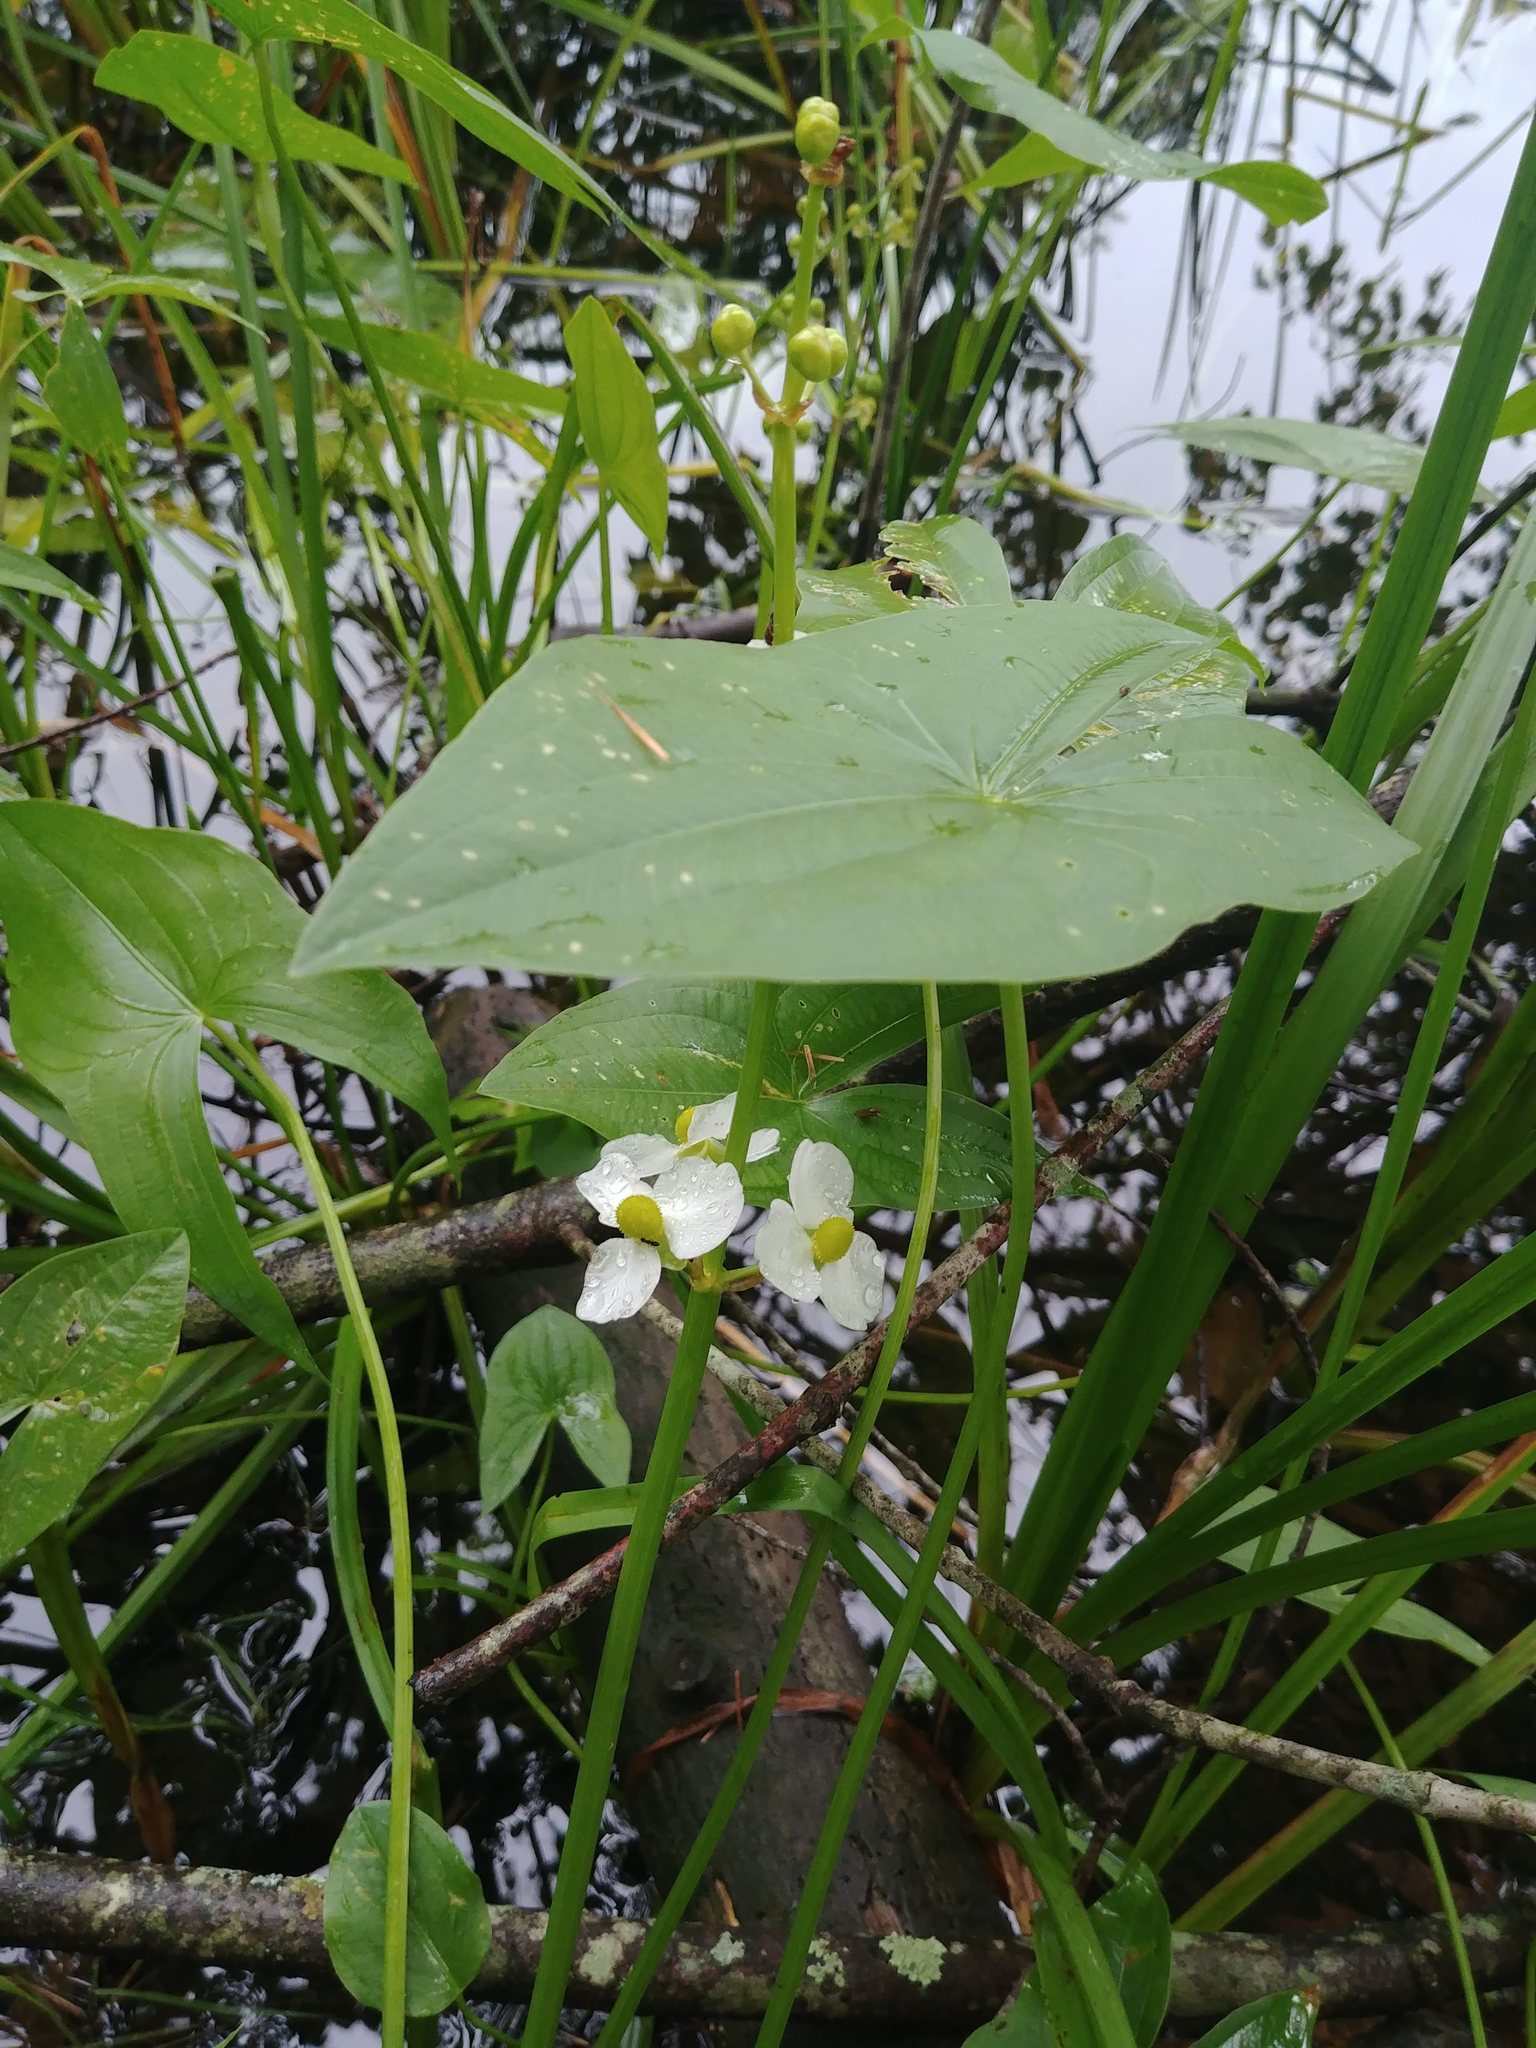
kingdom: Plantae
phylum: Tracheophyta
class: Liliopsida
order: Alismatales
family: Alismataceae
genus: Sagittaria
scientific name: Sagittaria latifolia
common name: Duck-potato
